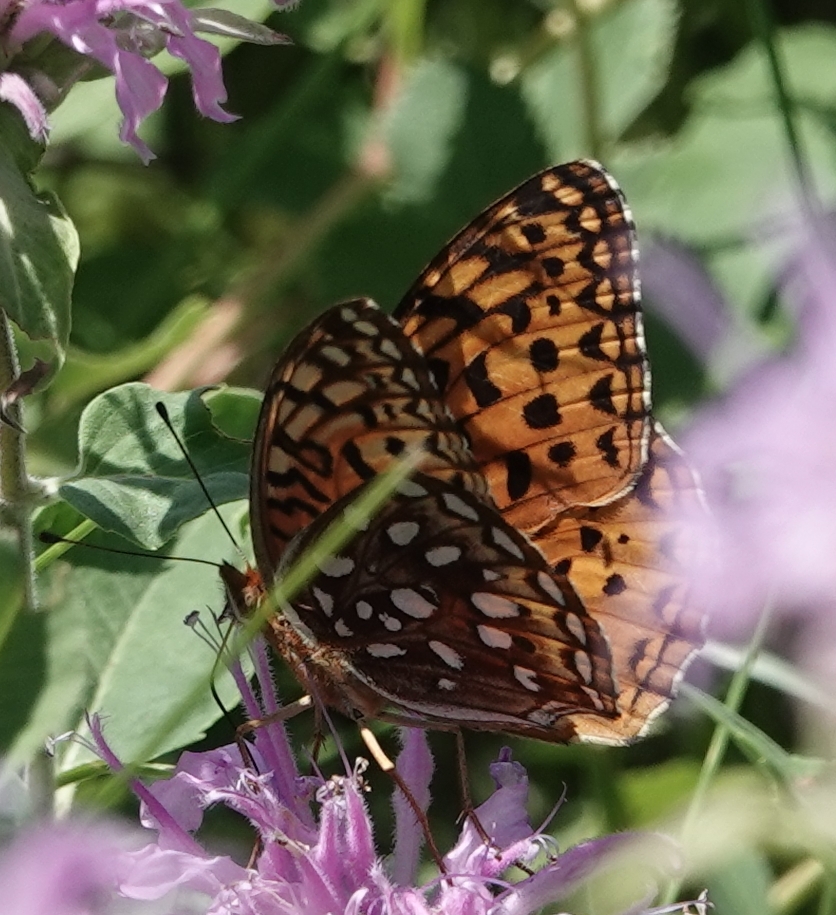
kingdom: Animalia
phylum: Arthropoda
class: Insecta
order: Lepidoptera
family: Nymphalidae
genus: Speyeria
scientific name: Speyeria aphrodite
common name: Aphrodite friitllary
